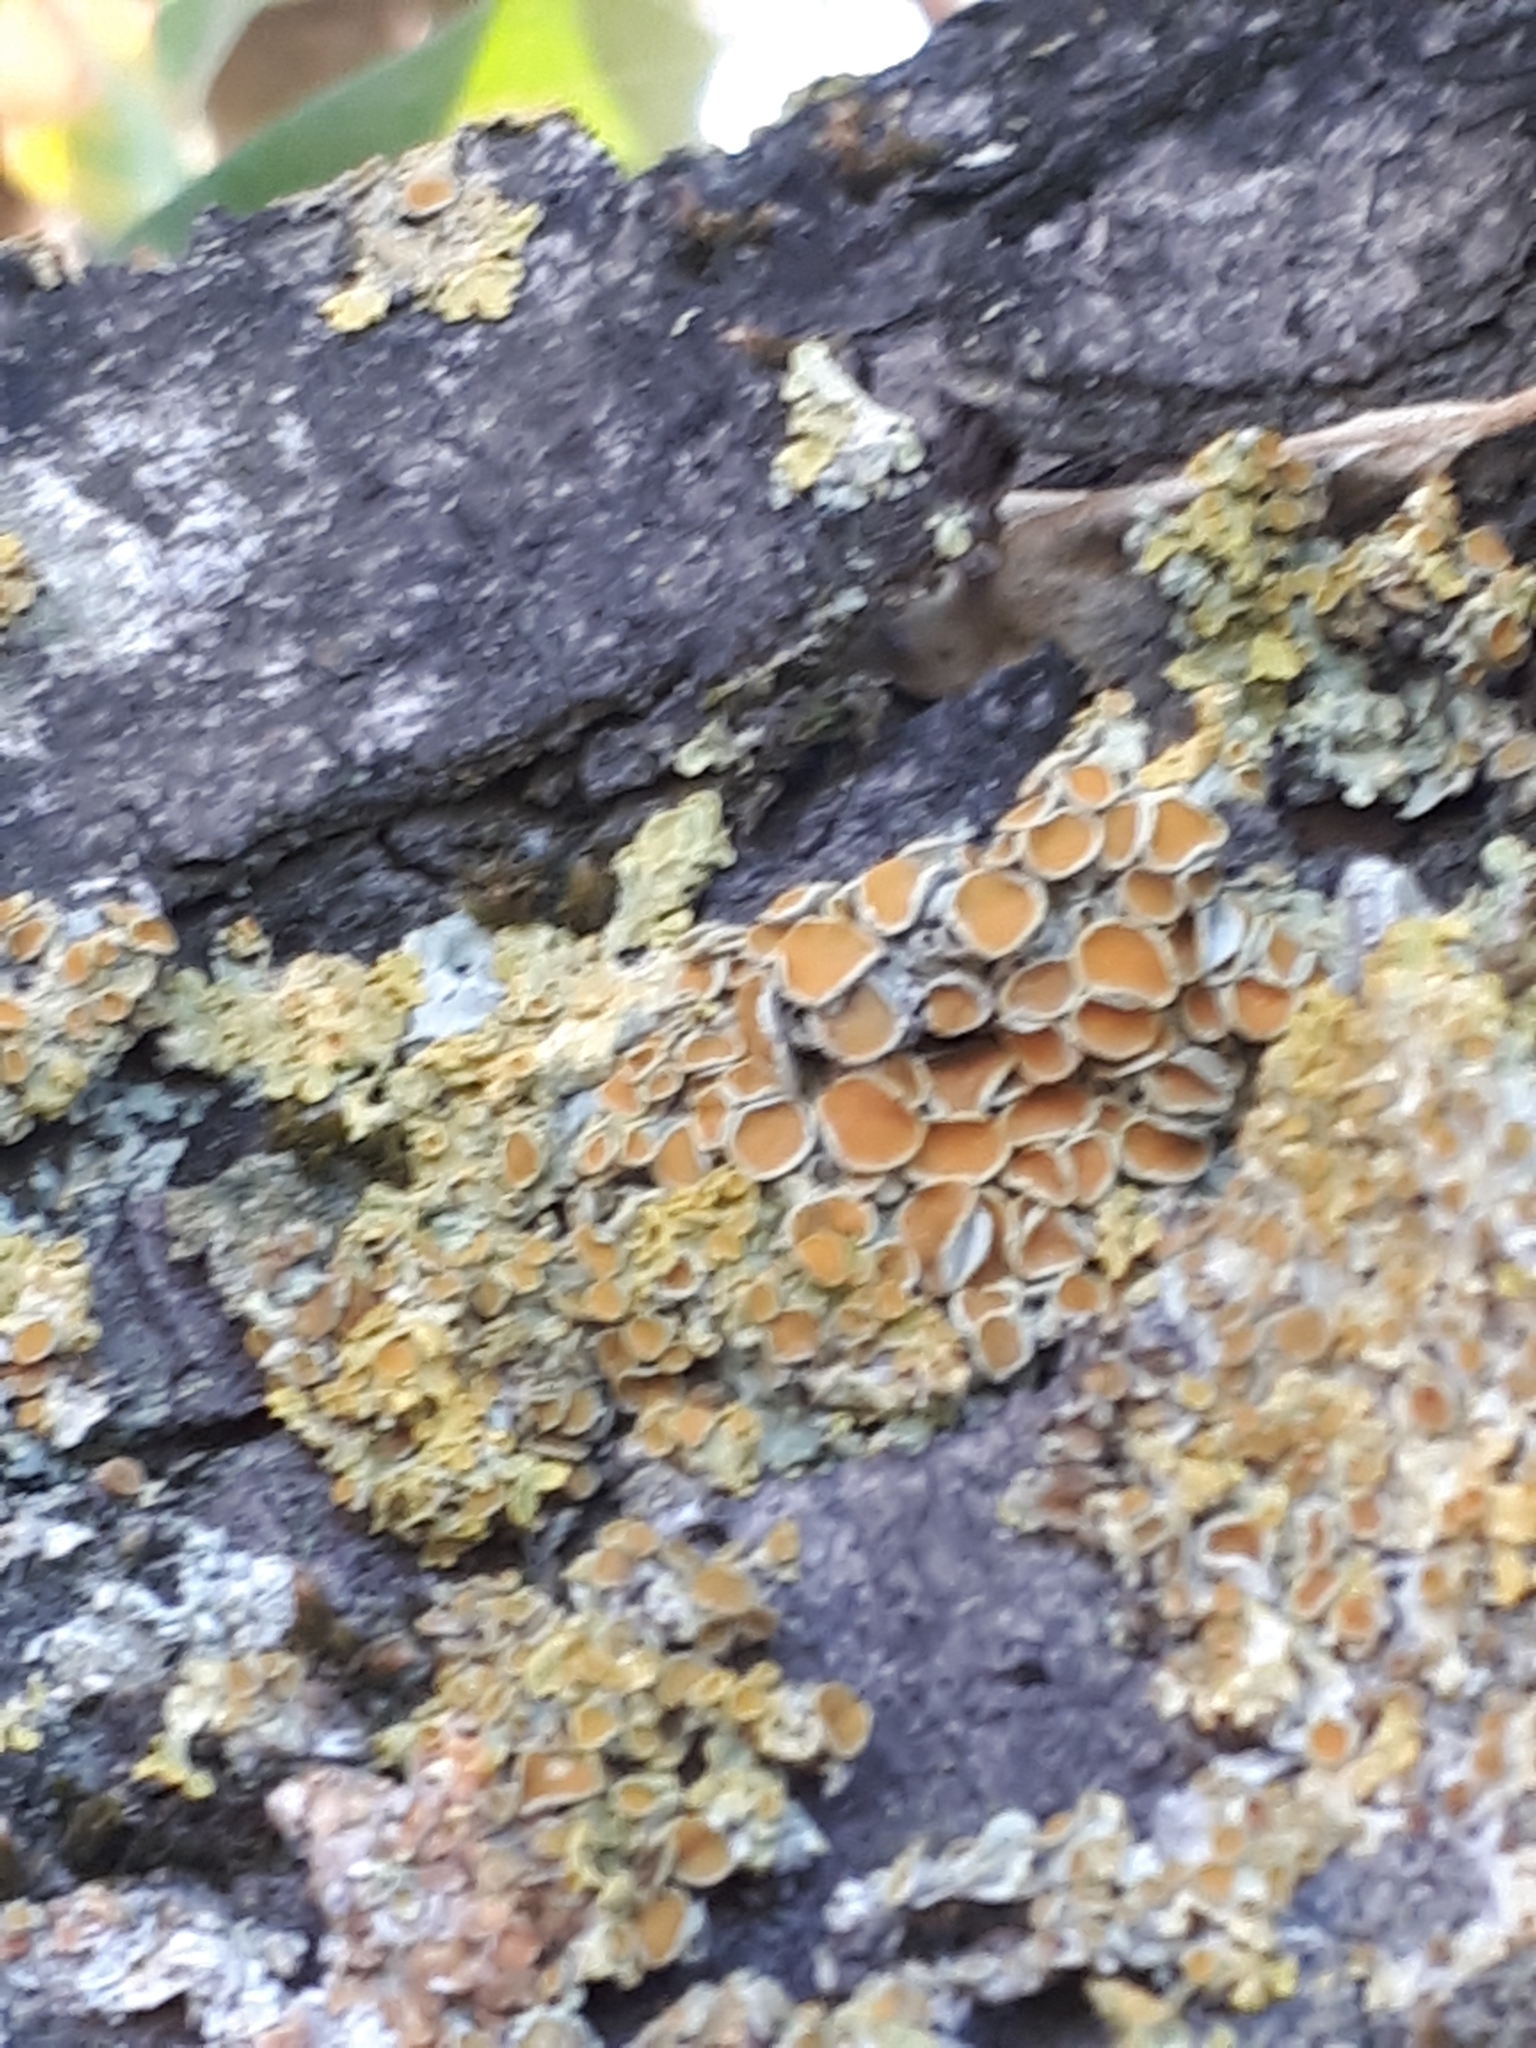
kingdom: Fungi
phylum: Ascomycota
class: Lecanoromycetes
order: Teloschistales
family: Teloschistaceae
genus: Xanthoria
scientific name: Xanthoria parietina
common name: Common orange lichen
